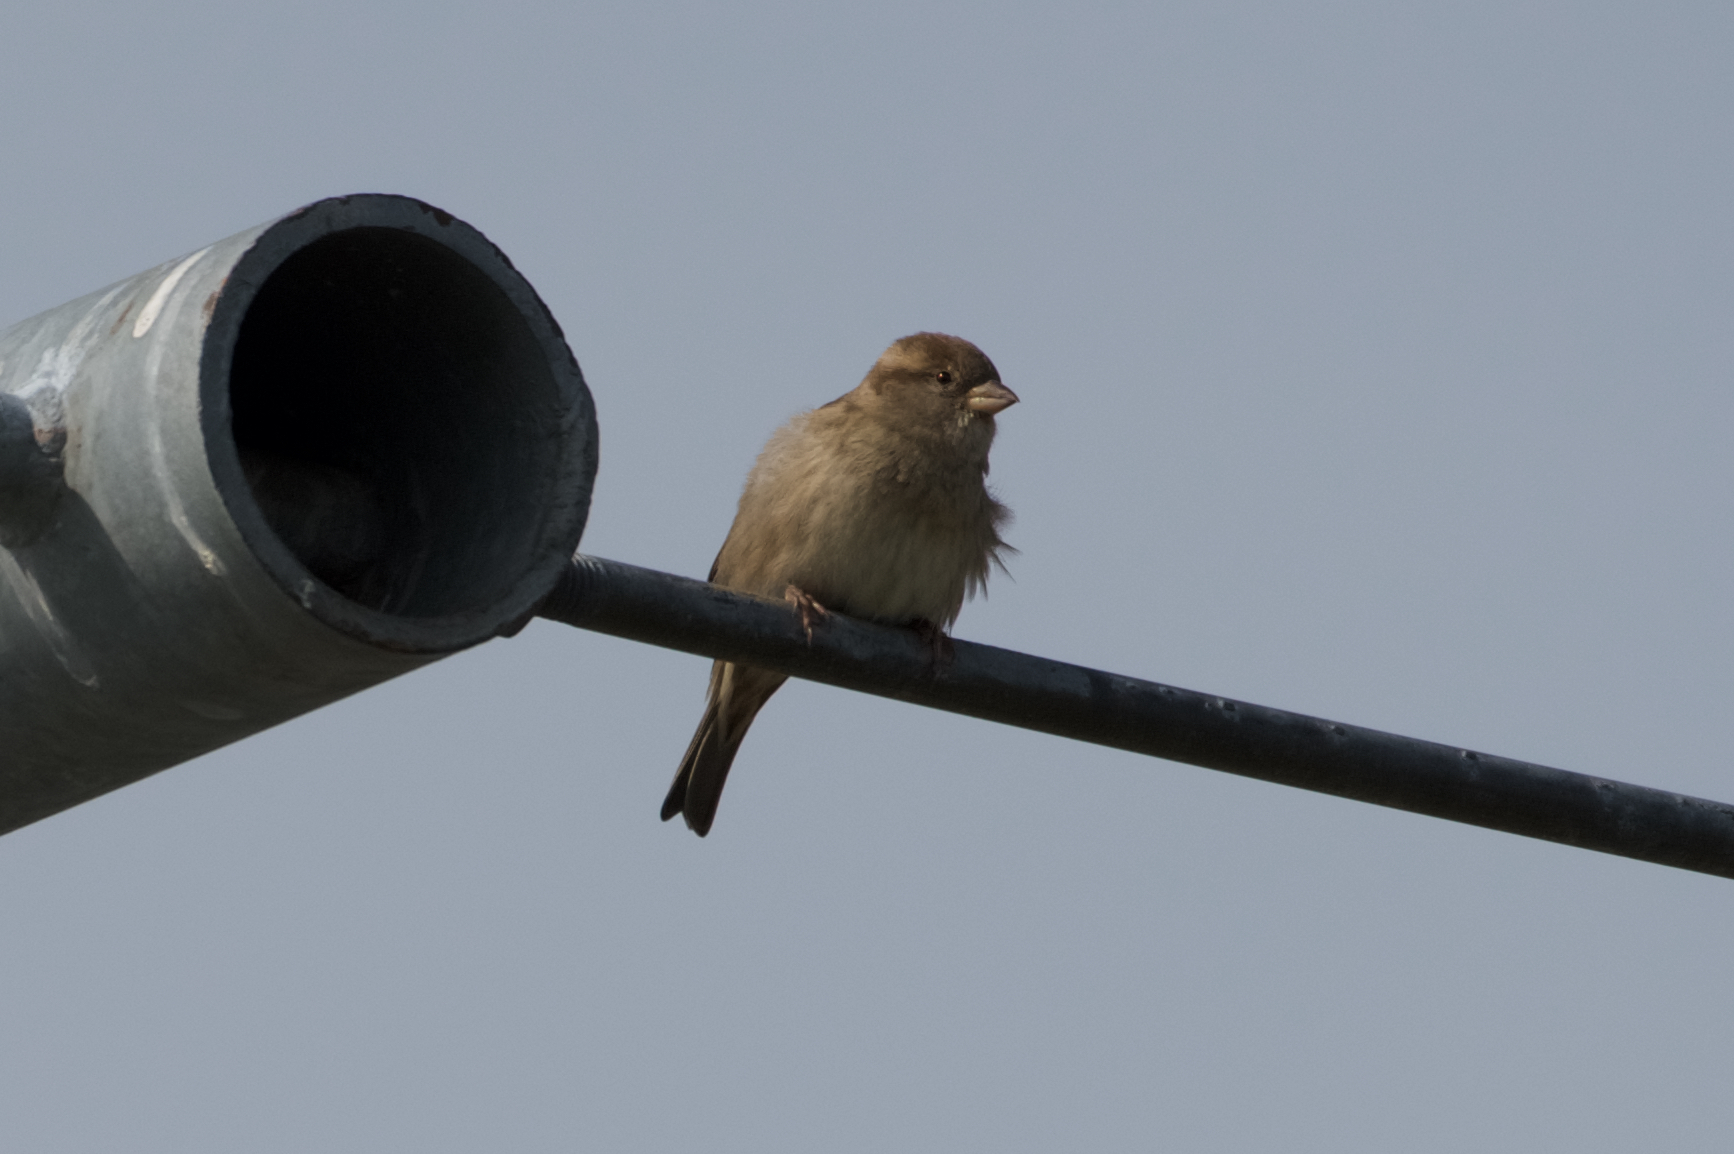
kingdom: Animalia
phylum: Chordata
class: Aves
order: Passeriformes
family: Passeridae
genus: Passer
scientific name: Passer domesticus
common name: House sparrow
